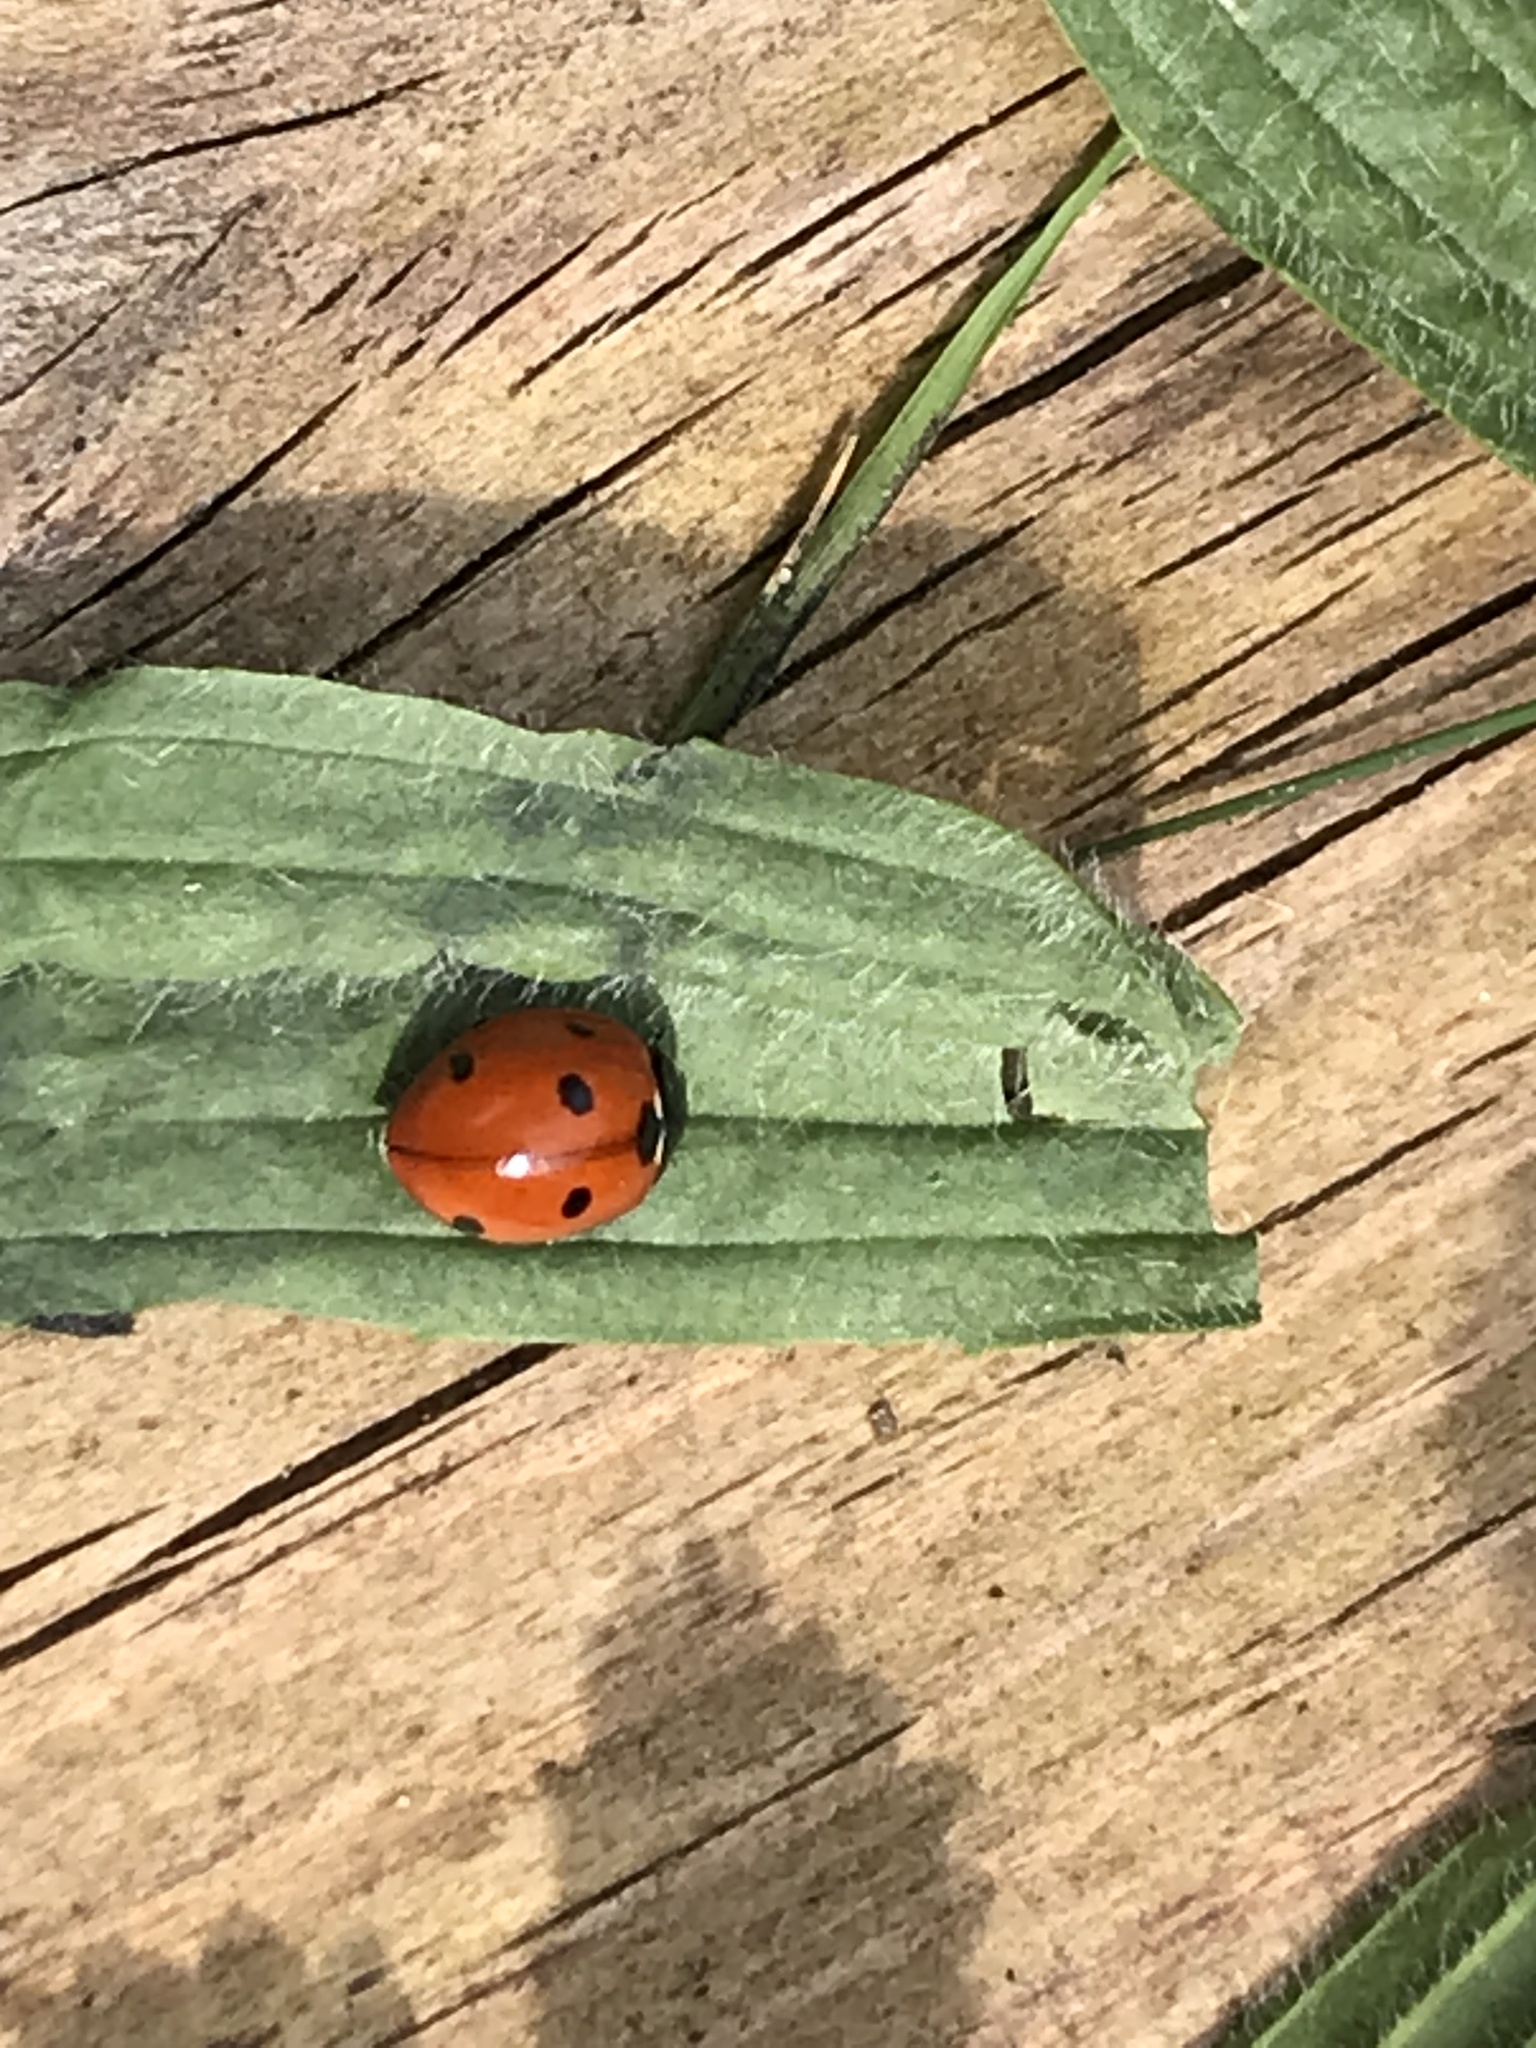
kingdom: Animalia
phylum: Arthropoda
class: Insecta
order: Coleoptera
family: Coccinellidae
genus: Coccinella
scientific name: Coccinella septempunctata
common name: Sevenspotted lady beetle
